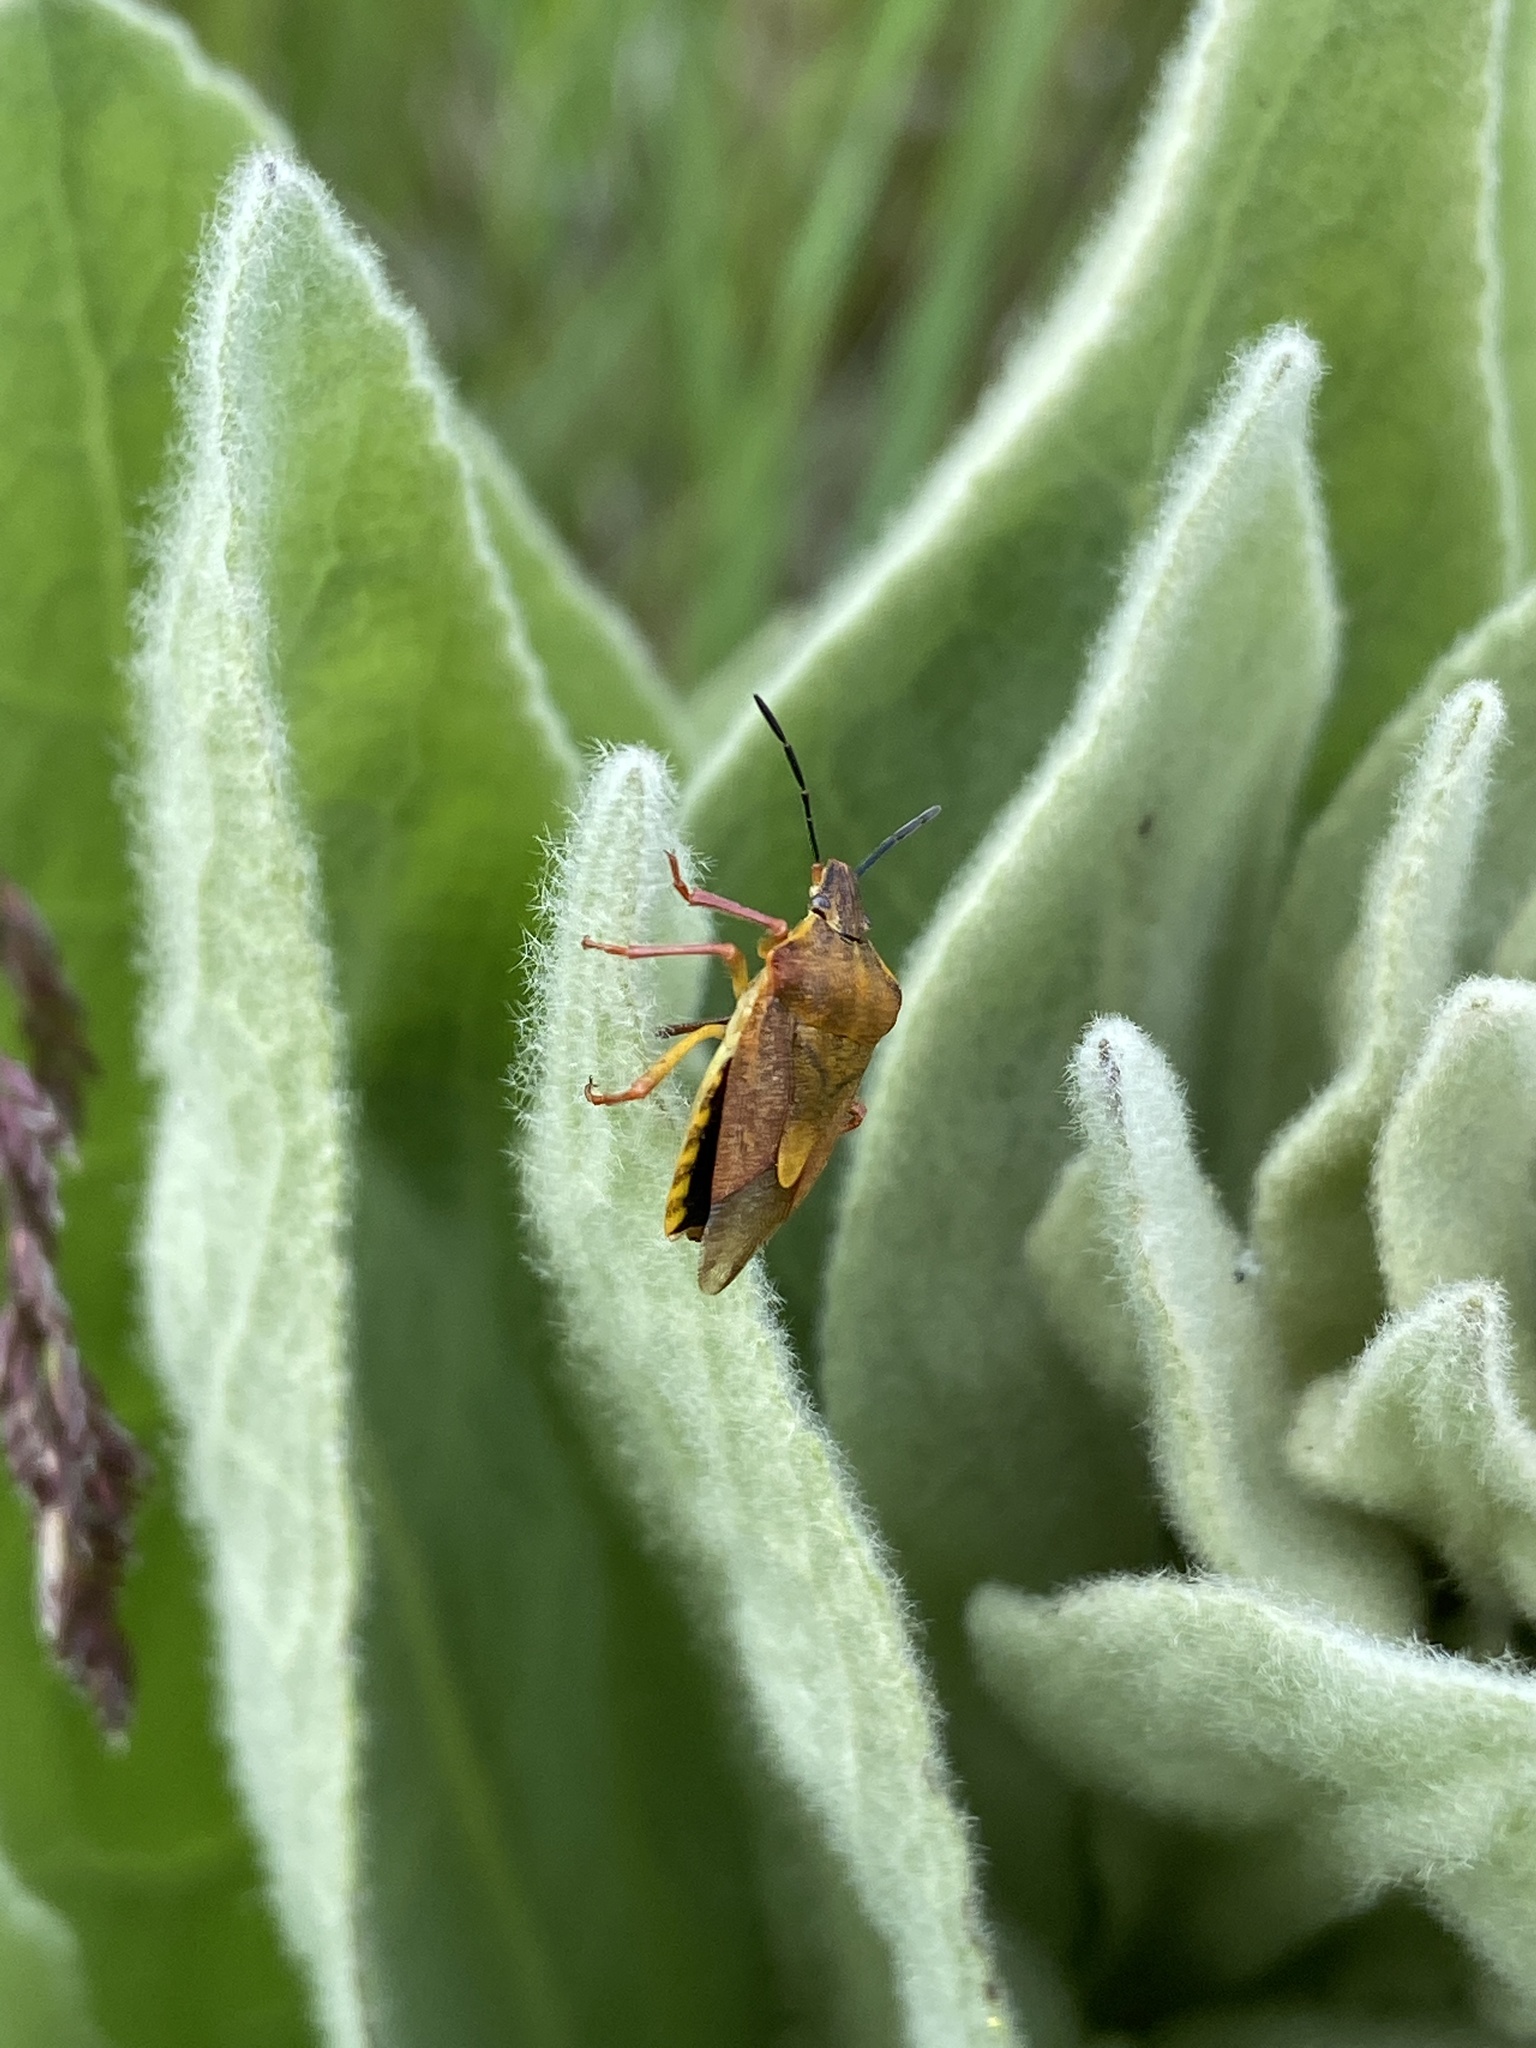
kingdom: Animalia
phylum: Arthropoda
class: Insecta
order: Hemiptera
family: Pentatomidae
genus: Carpocoris
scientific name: Carpocoris purpureipennis
